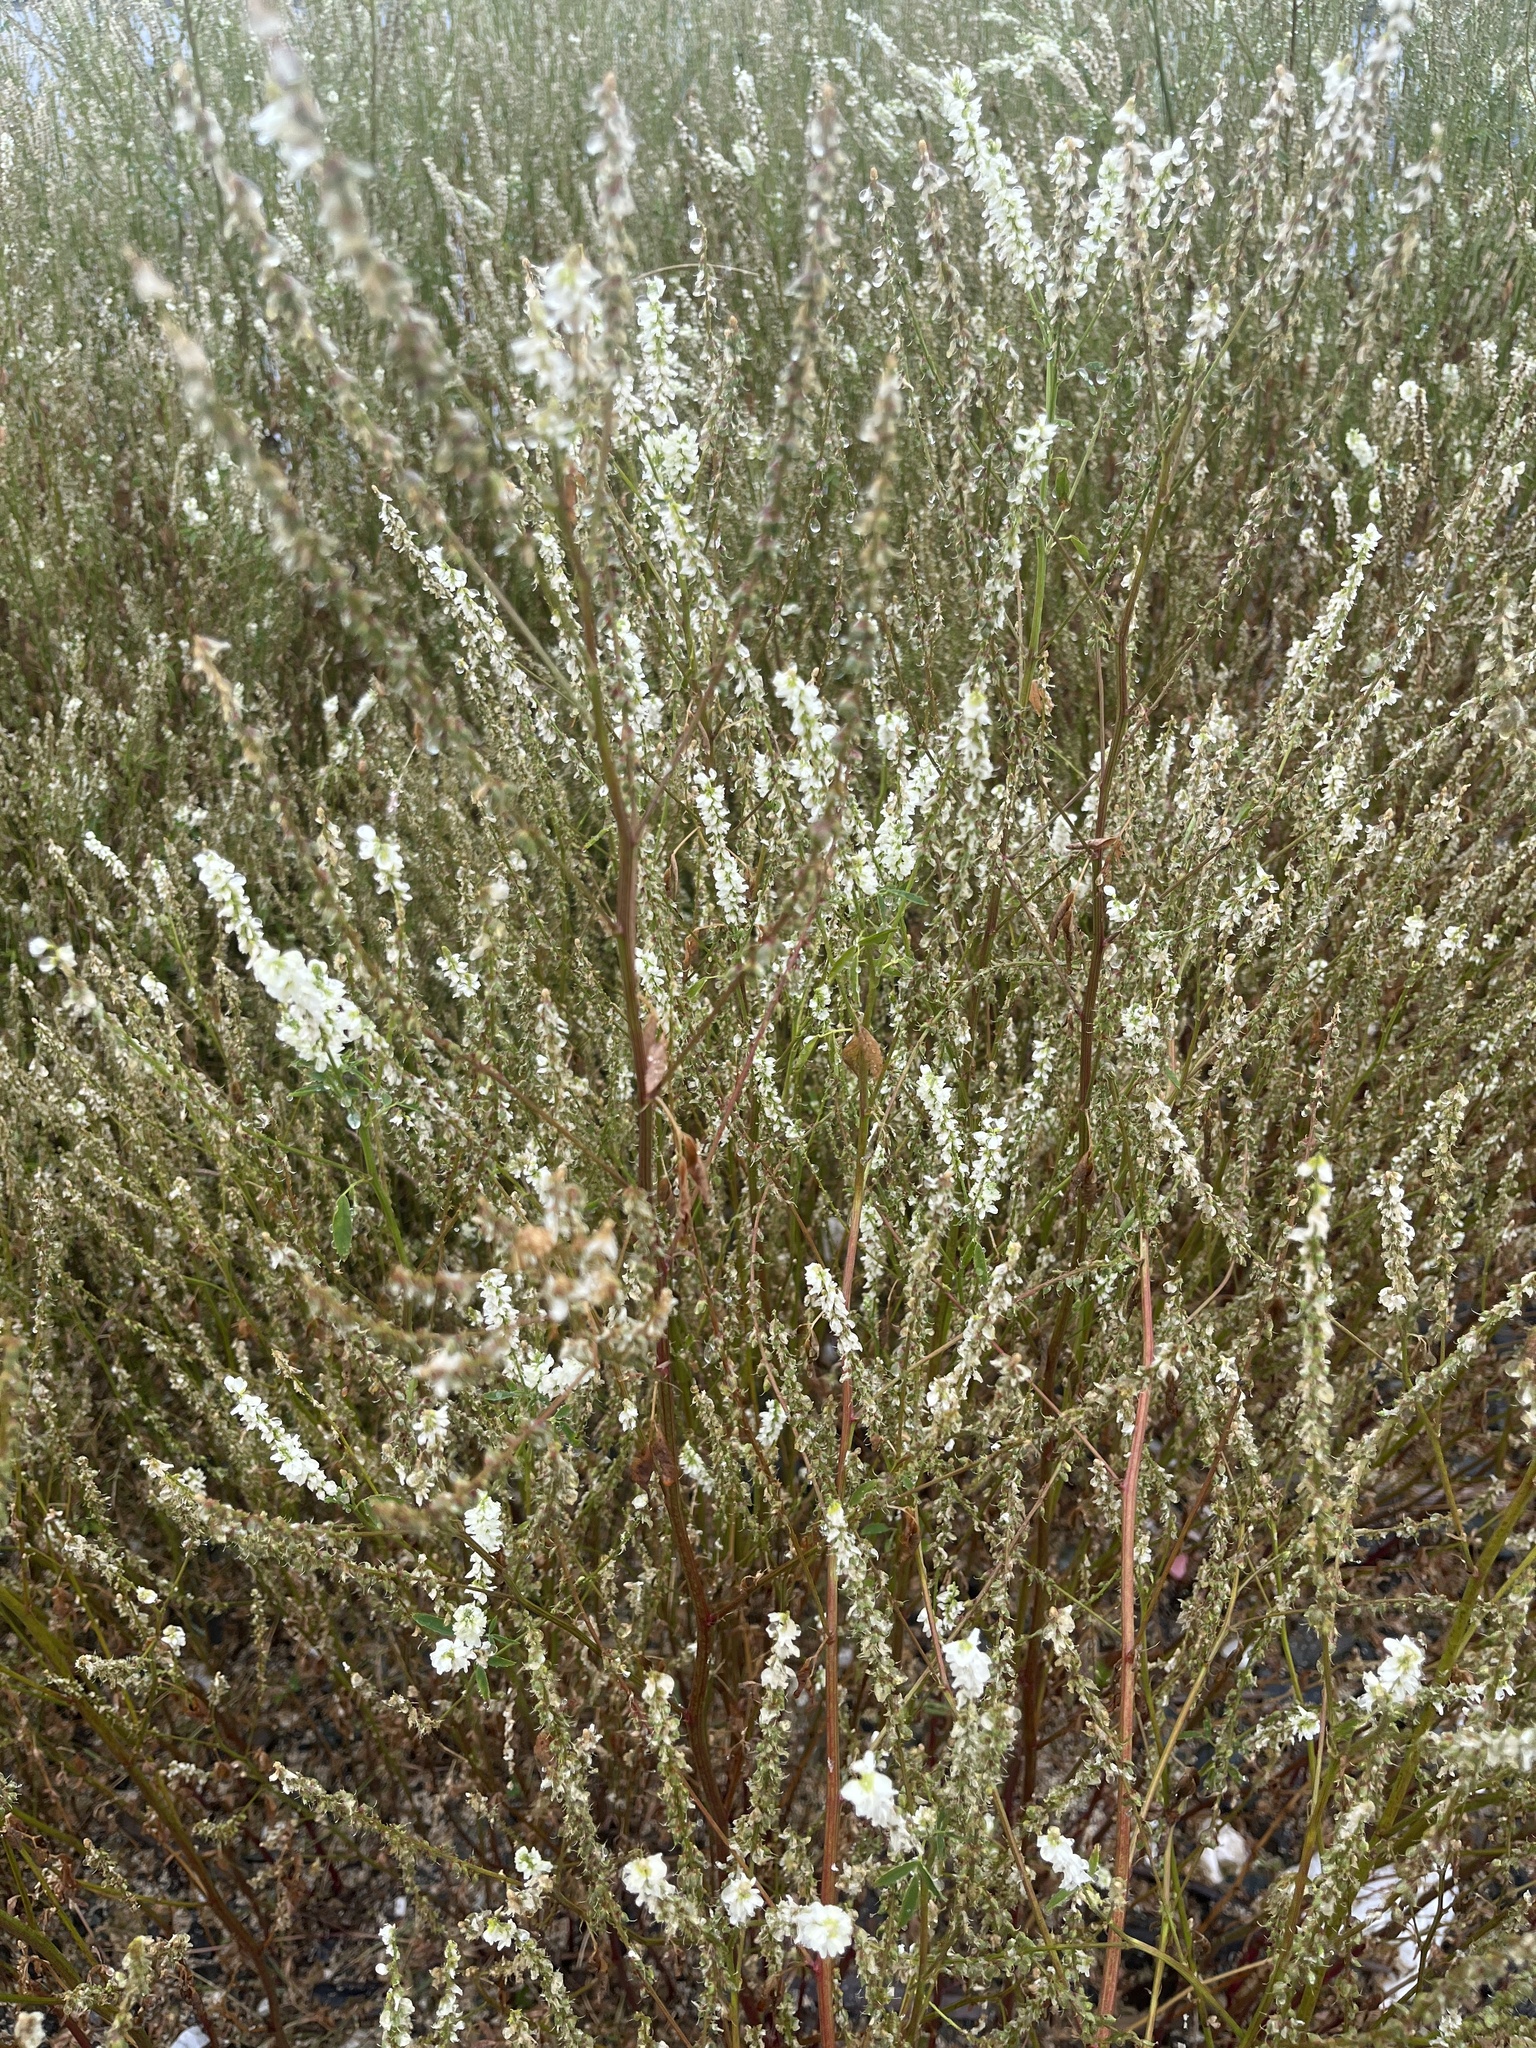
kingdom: Plantae
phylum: Tracheophyta
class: Magnoliopsida
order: Fabales
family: Fabaceae
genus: Melilotus
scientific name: Melilotus albus
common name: White melilot
